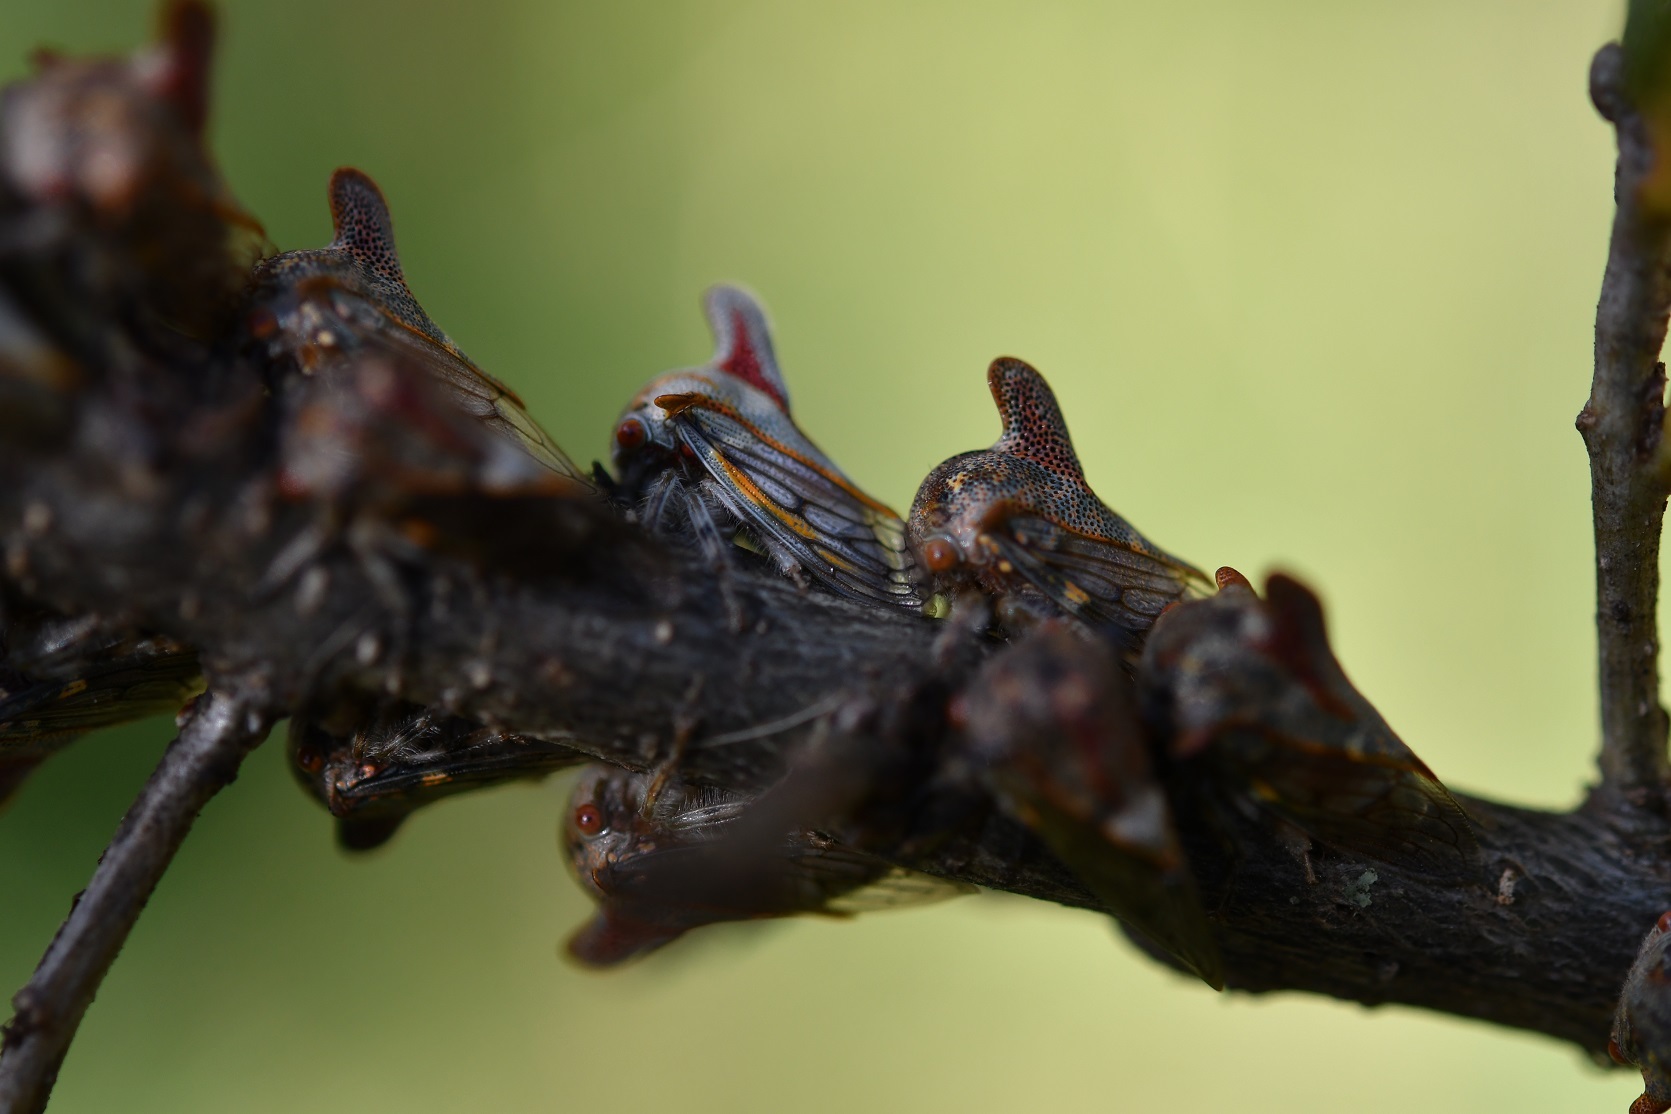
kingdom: Animalia
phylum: Arthropoda
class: Insecta
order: Hemiptera
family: Membracidae
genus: Platycotis
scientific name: Platycotis tuberculata
